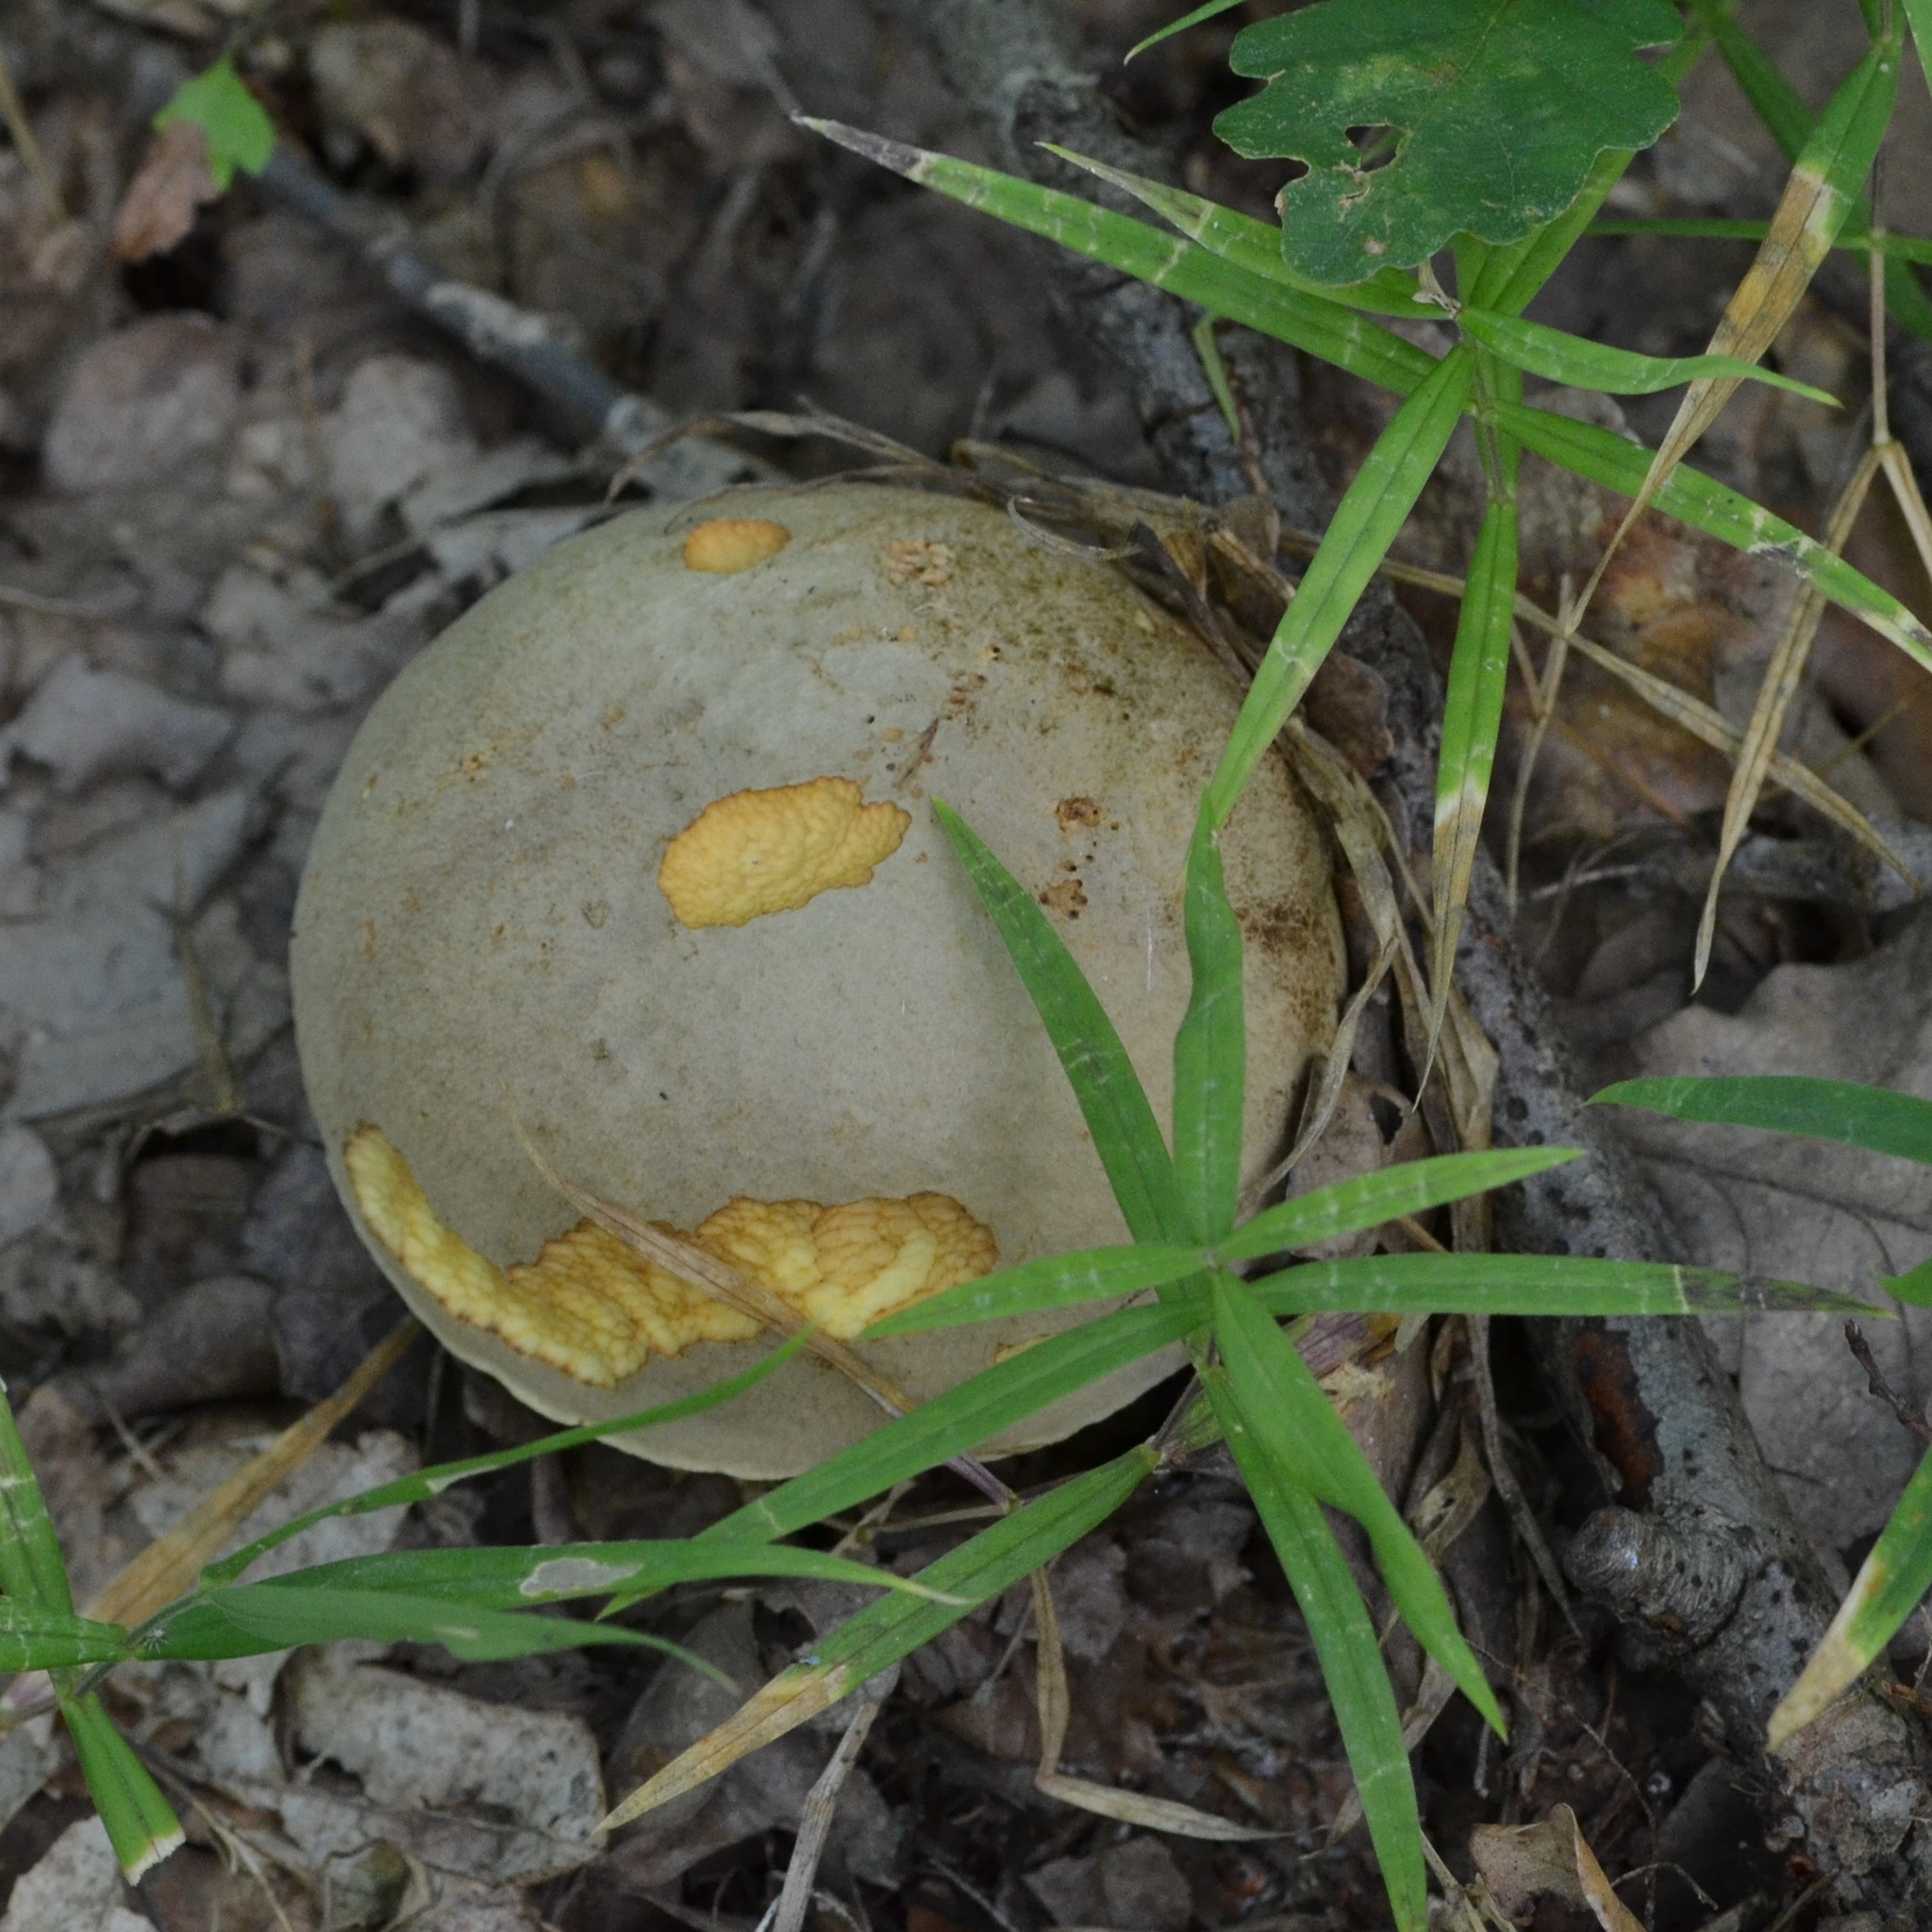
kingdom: Fungi
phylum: Basidiomycota
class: Agaricomycetes
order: Boletales
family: Boletaceae
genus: Hemileccinum
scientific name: Hemileccinum impolitum
